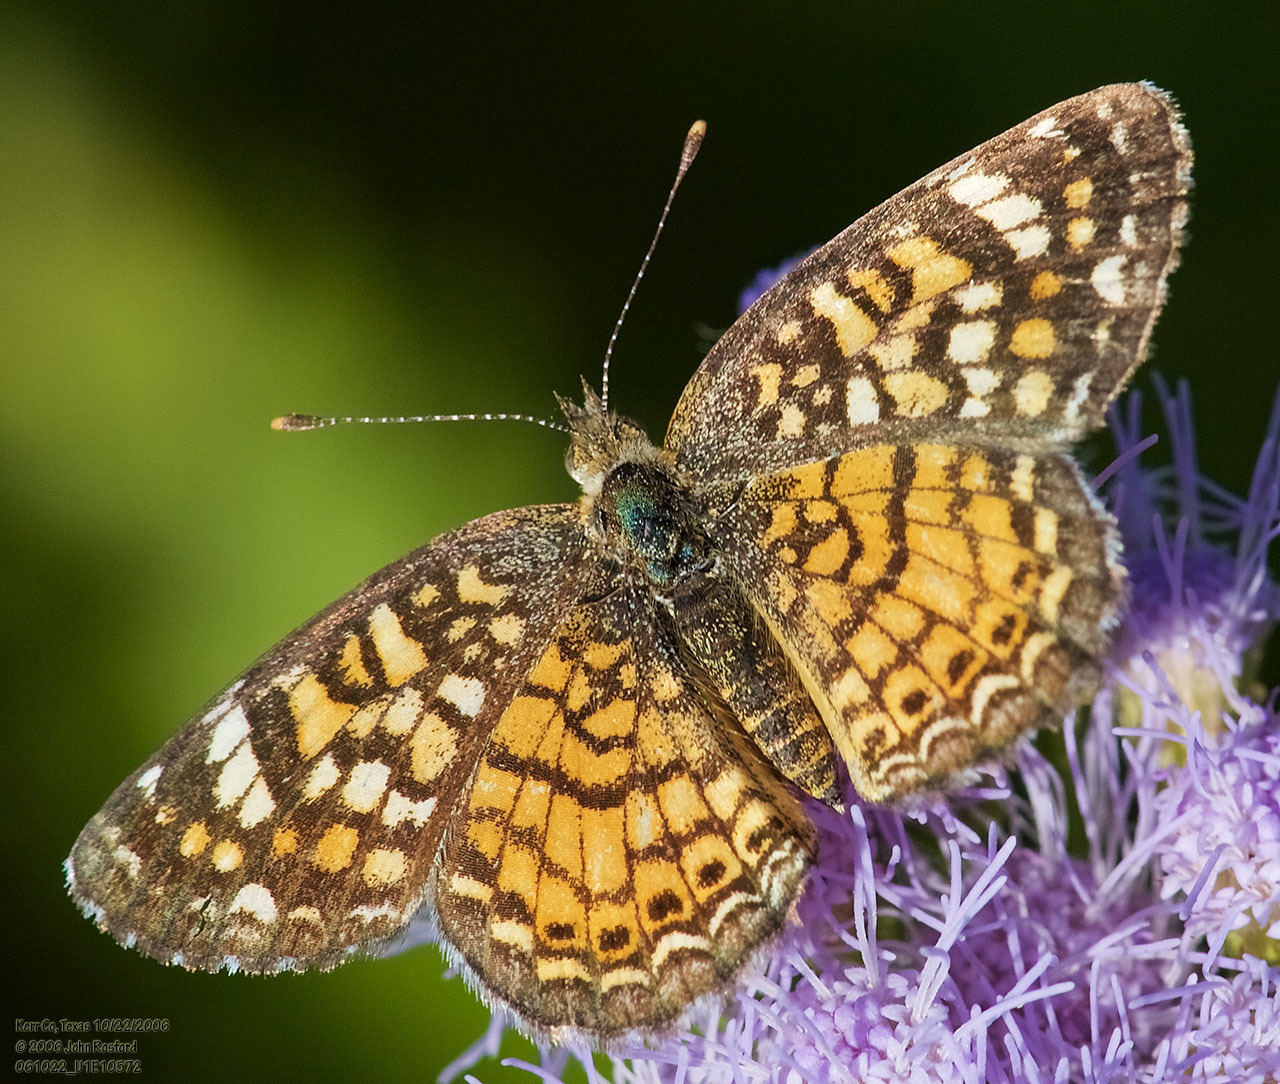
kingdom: Animalia
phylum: Arthropoda
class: Insecta
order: Lepidoptera
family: Nymphalidae
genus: Phyciodes
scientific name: Phyciodes vesta
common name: Vesta crescent
